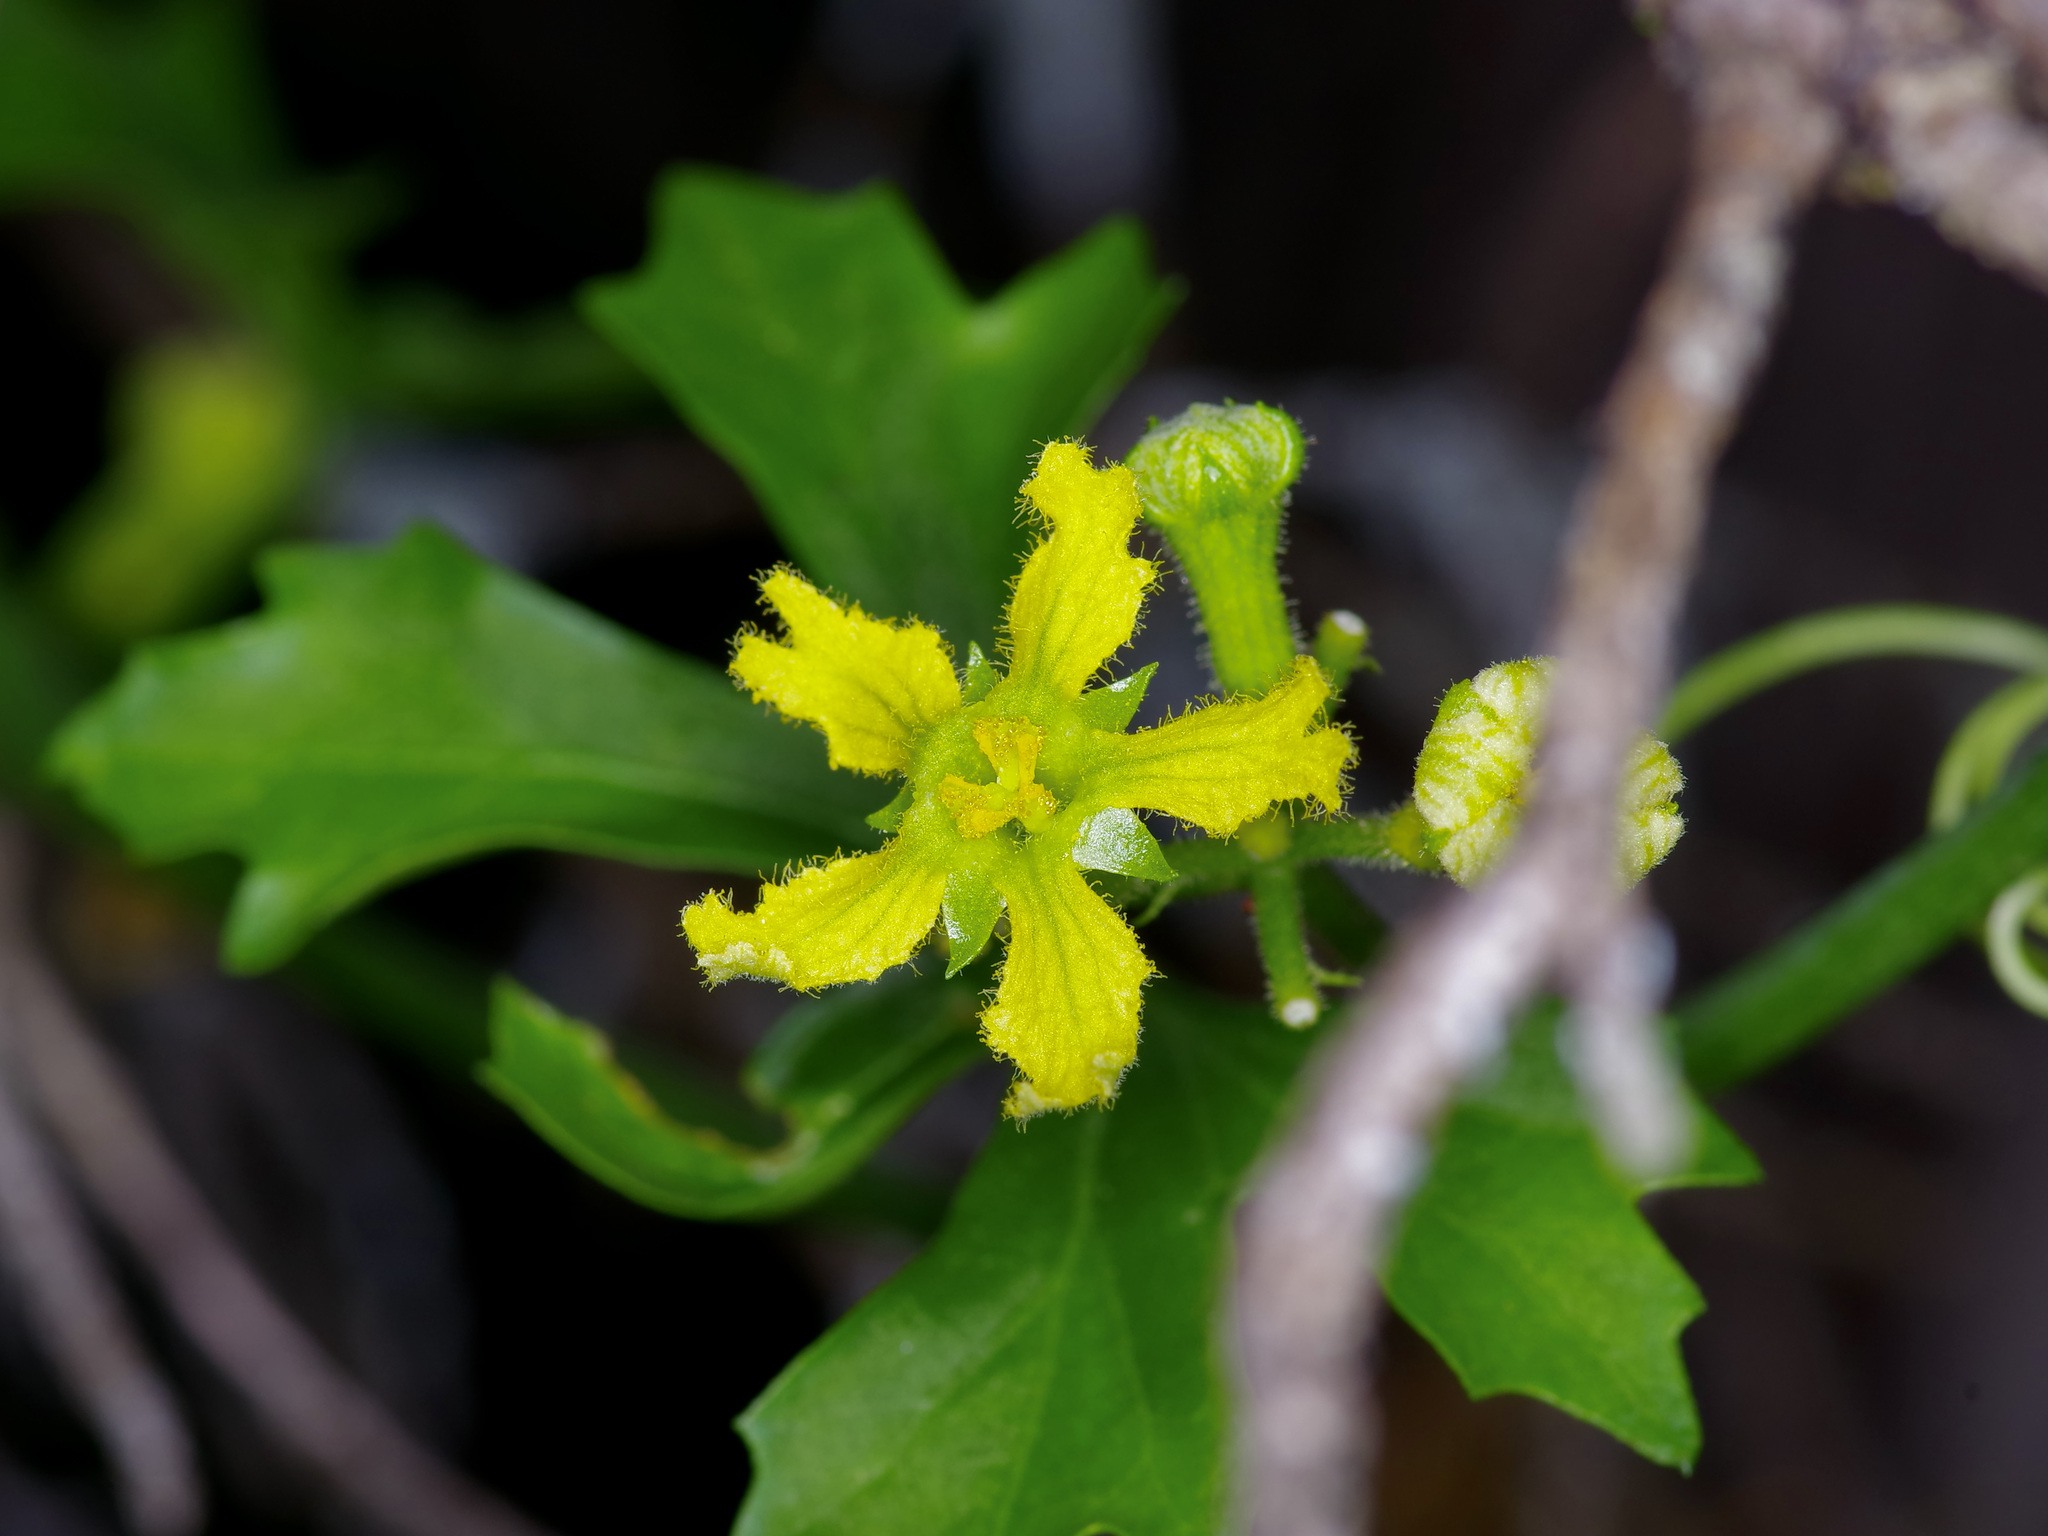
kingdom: Plantae
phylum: Tracheophyta
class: Magnoliopsida
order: Cucurbitales
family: Cucurbitaceae
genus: Ibervillea
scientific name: Ibervillea lindheimeri
